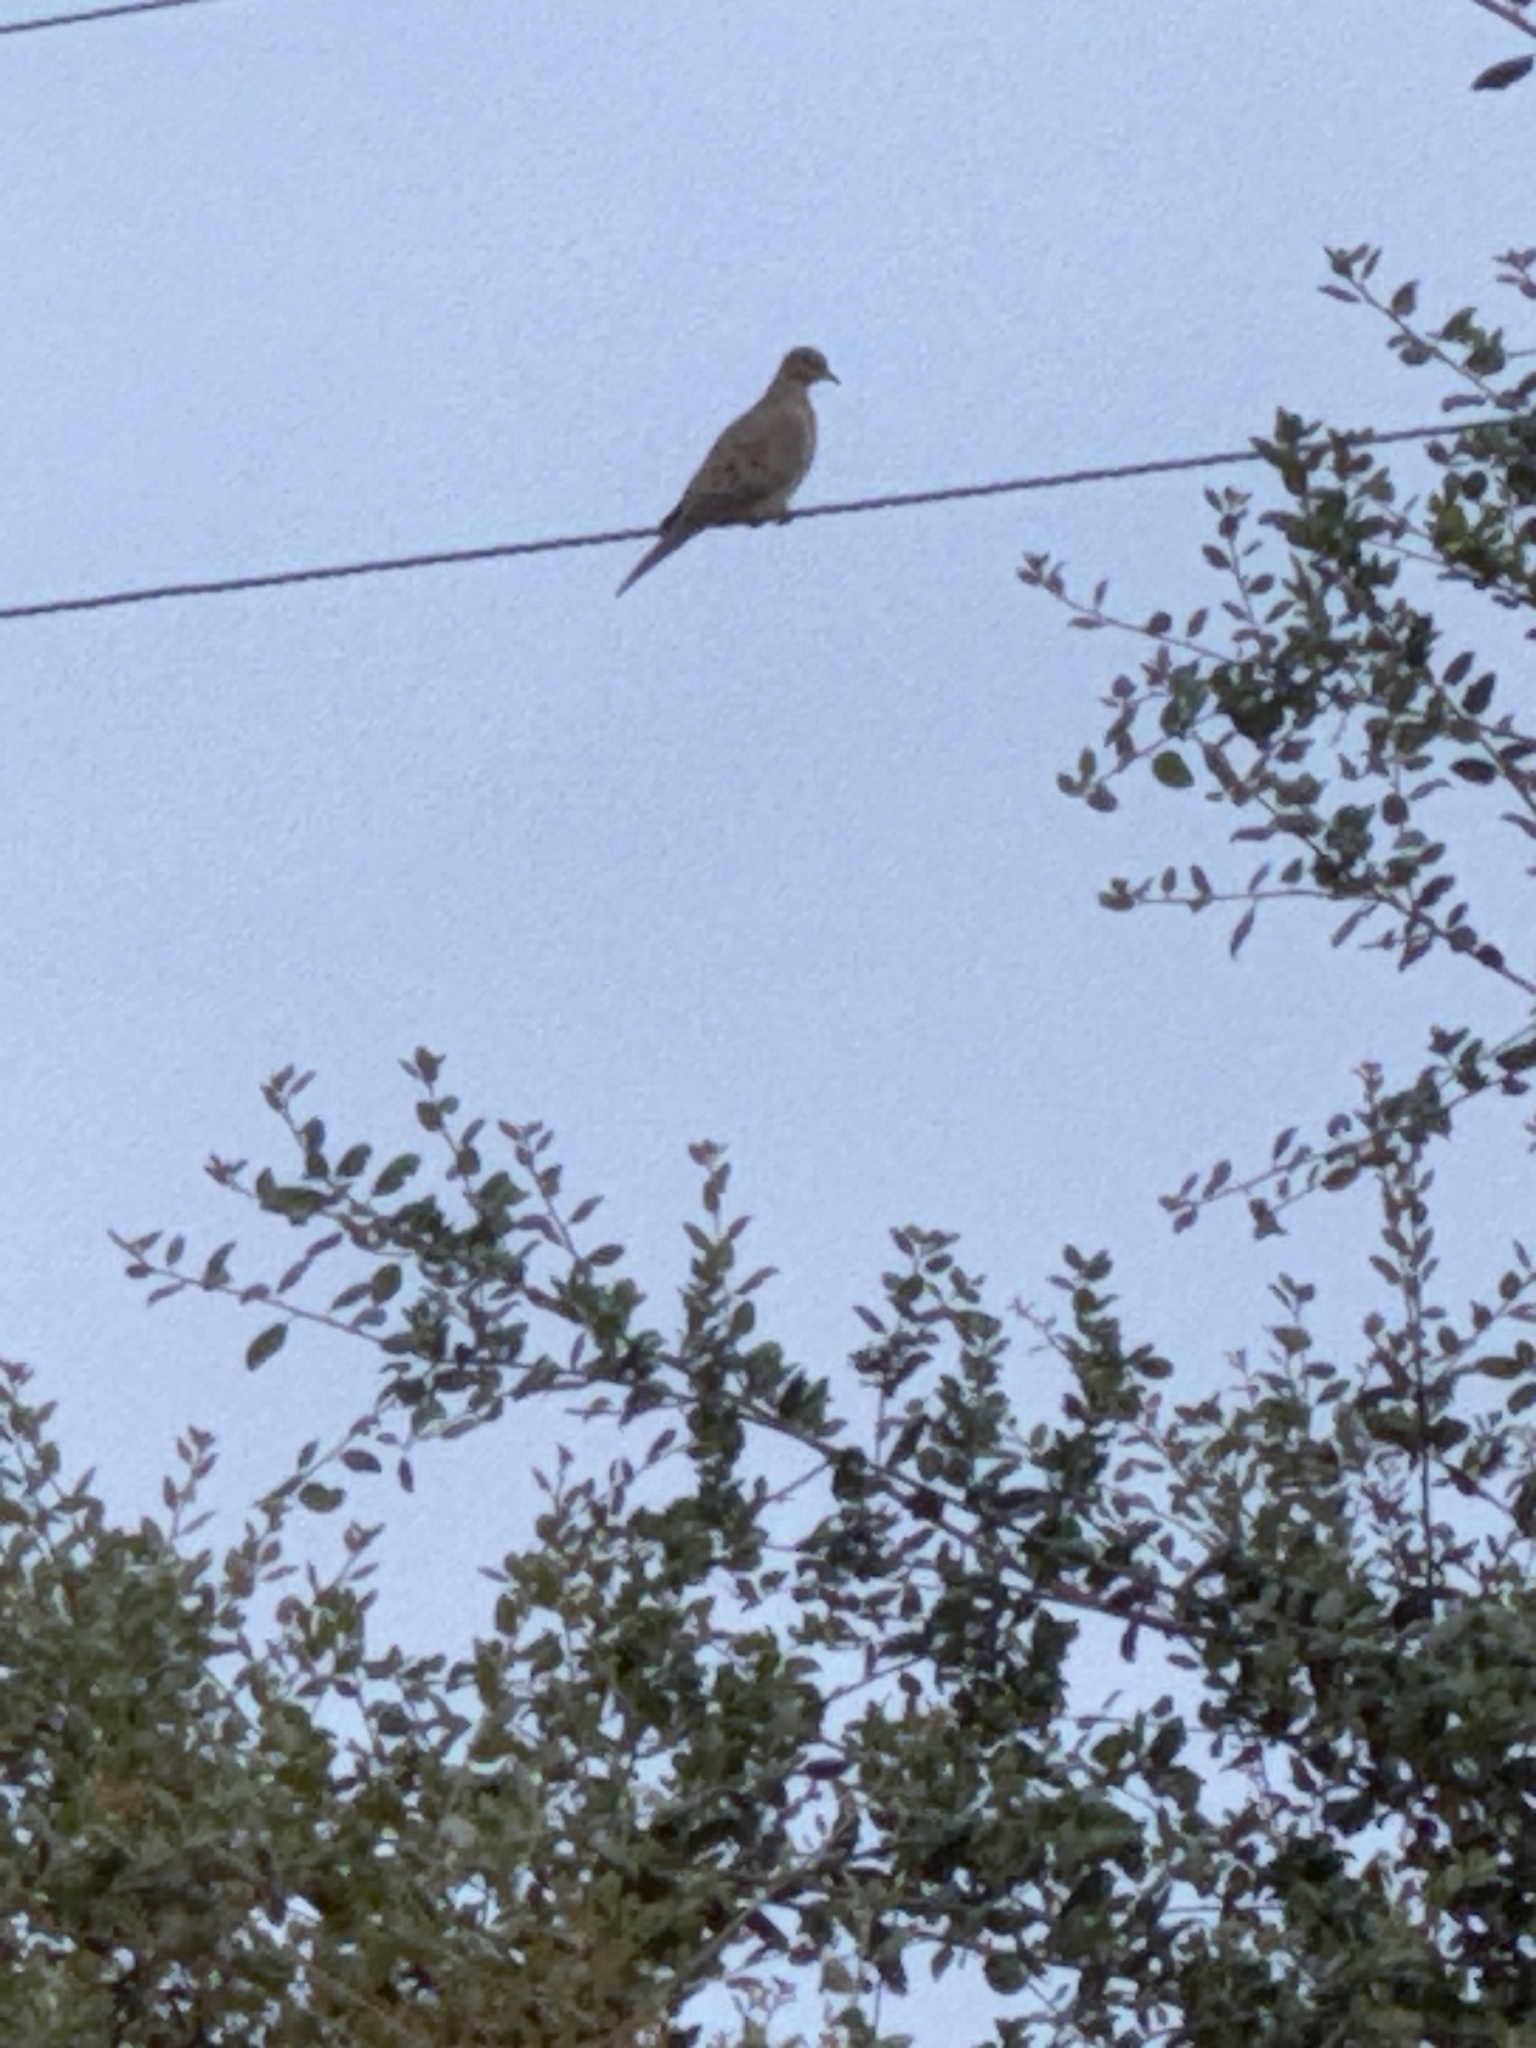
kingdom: Animalia
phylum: Chordata
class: Aves
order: Columbiformes
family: Columbidae
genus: Zenaida
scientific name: Zenaida macroura
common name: Mourning dove
